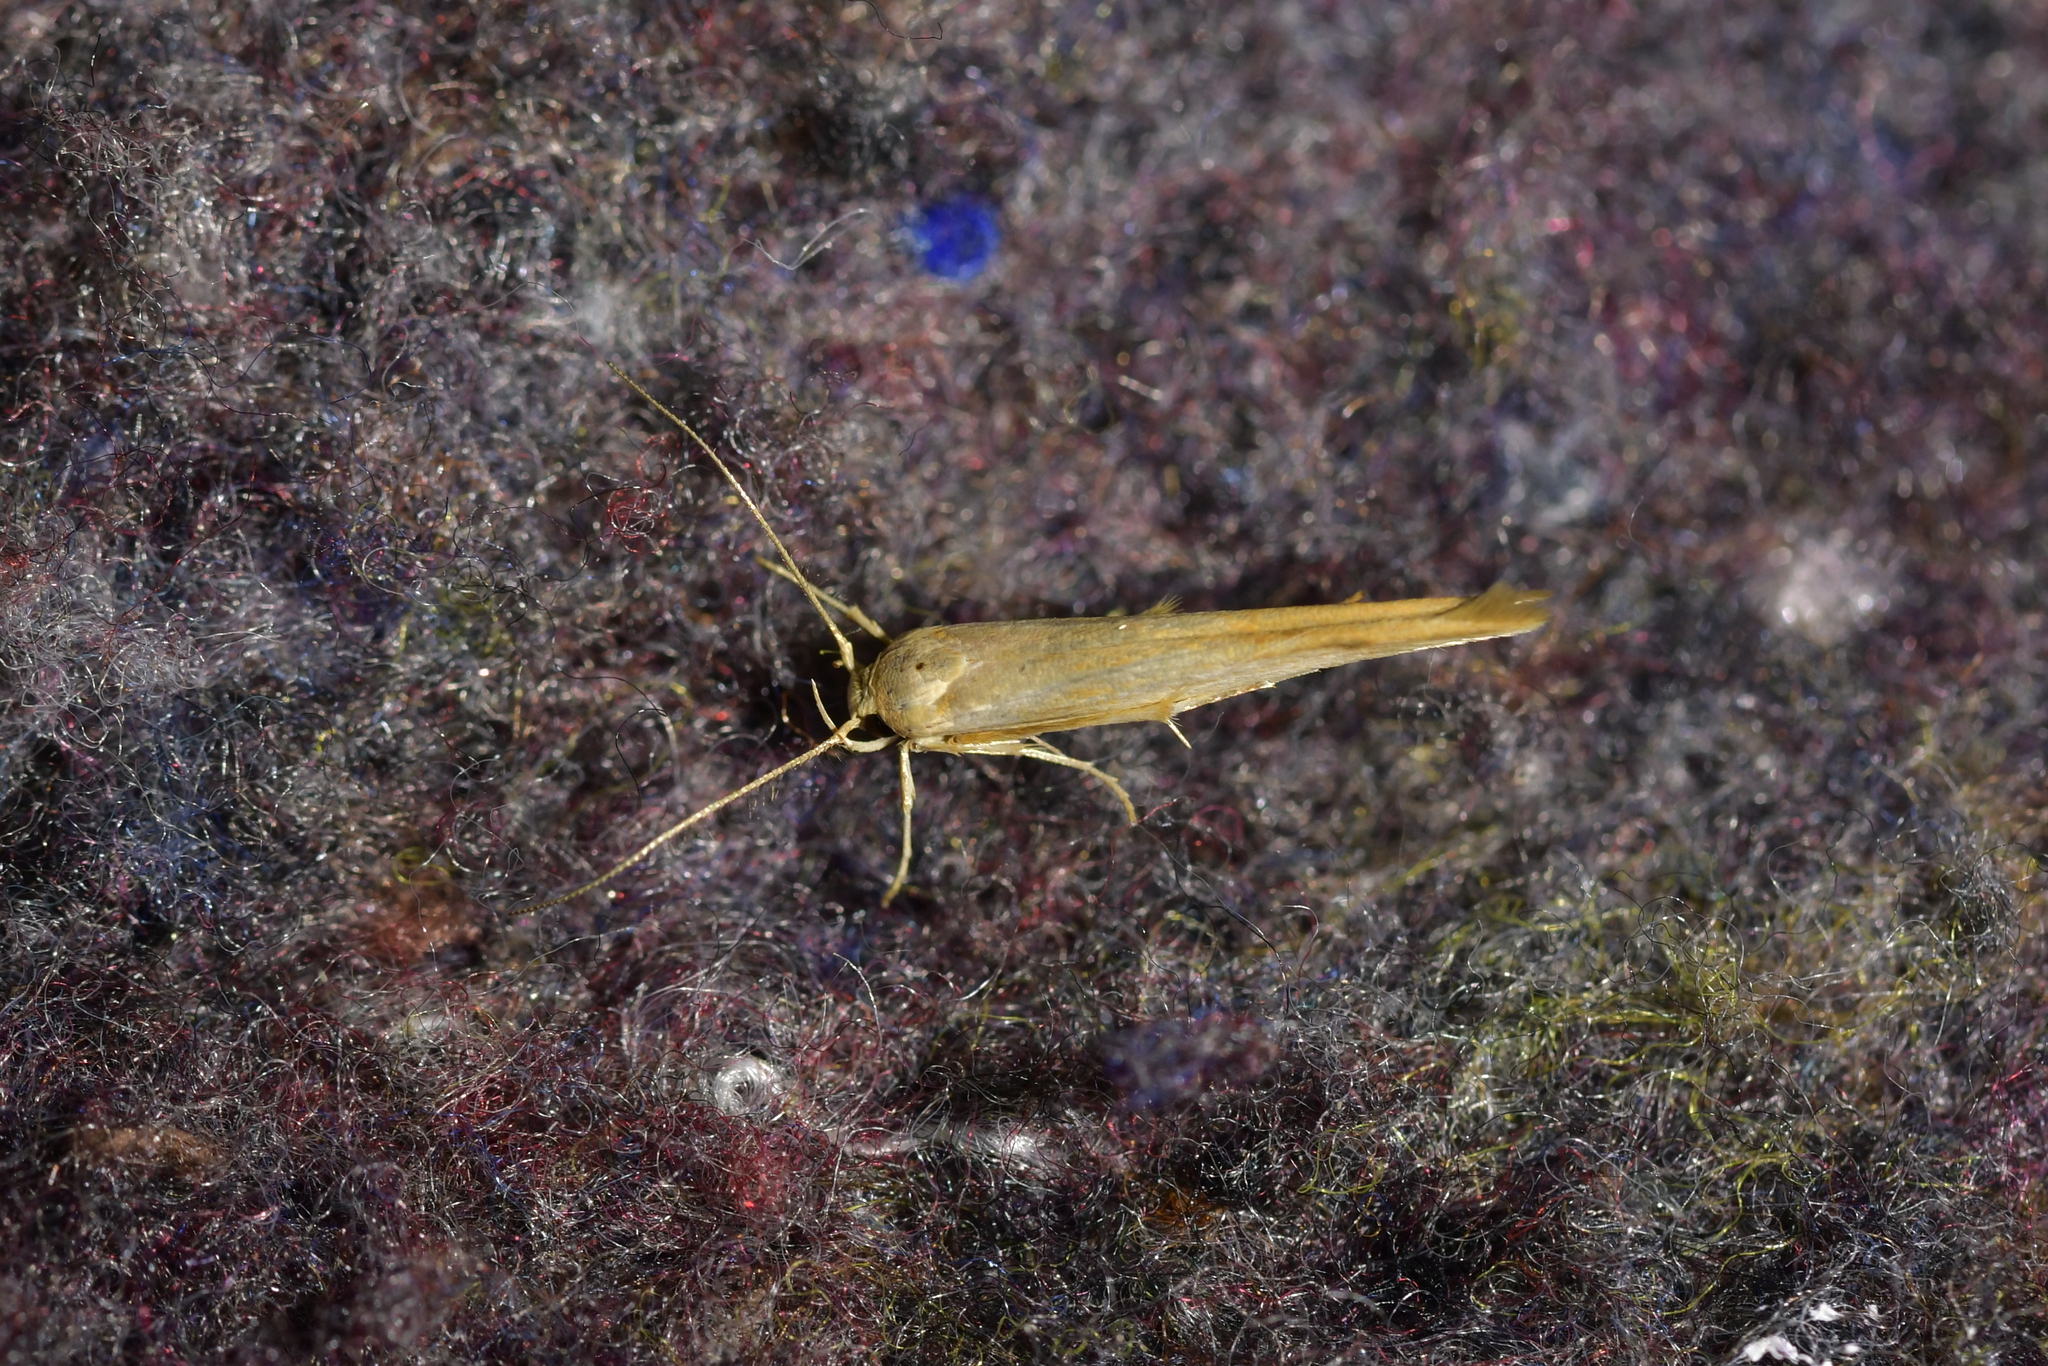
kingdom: Animalia
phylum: Arthropoda
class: Insecta
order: Lepidoptera
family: Stathmopodidae
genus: Stathmopoda
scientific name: Stathmopoda aposema
